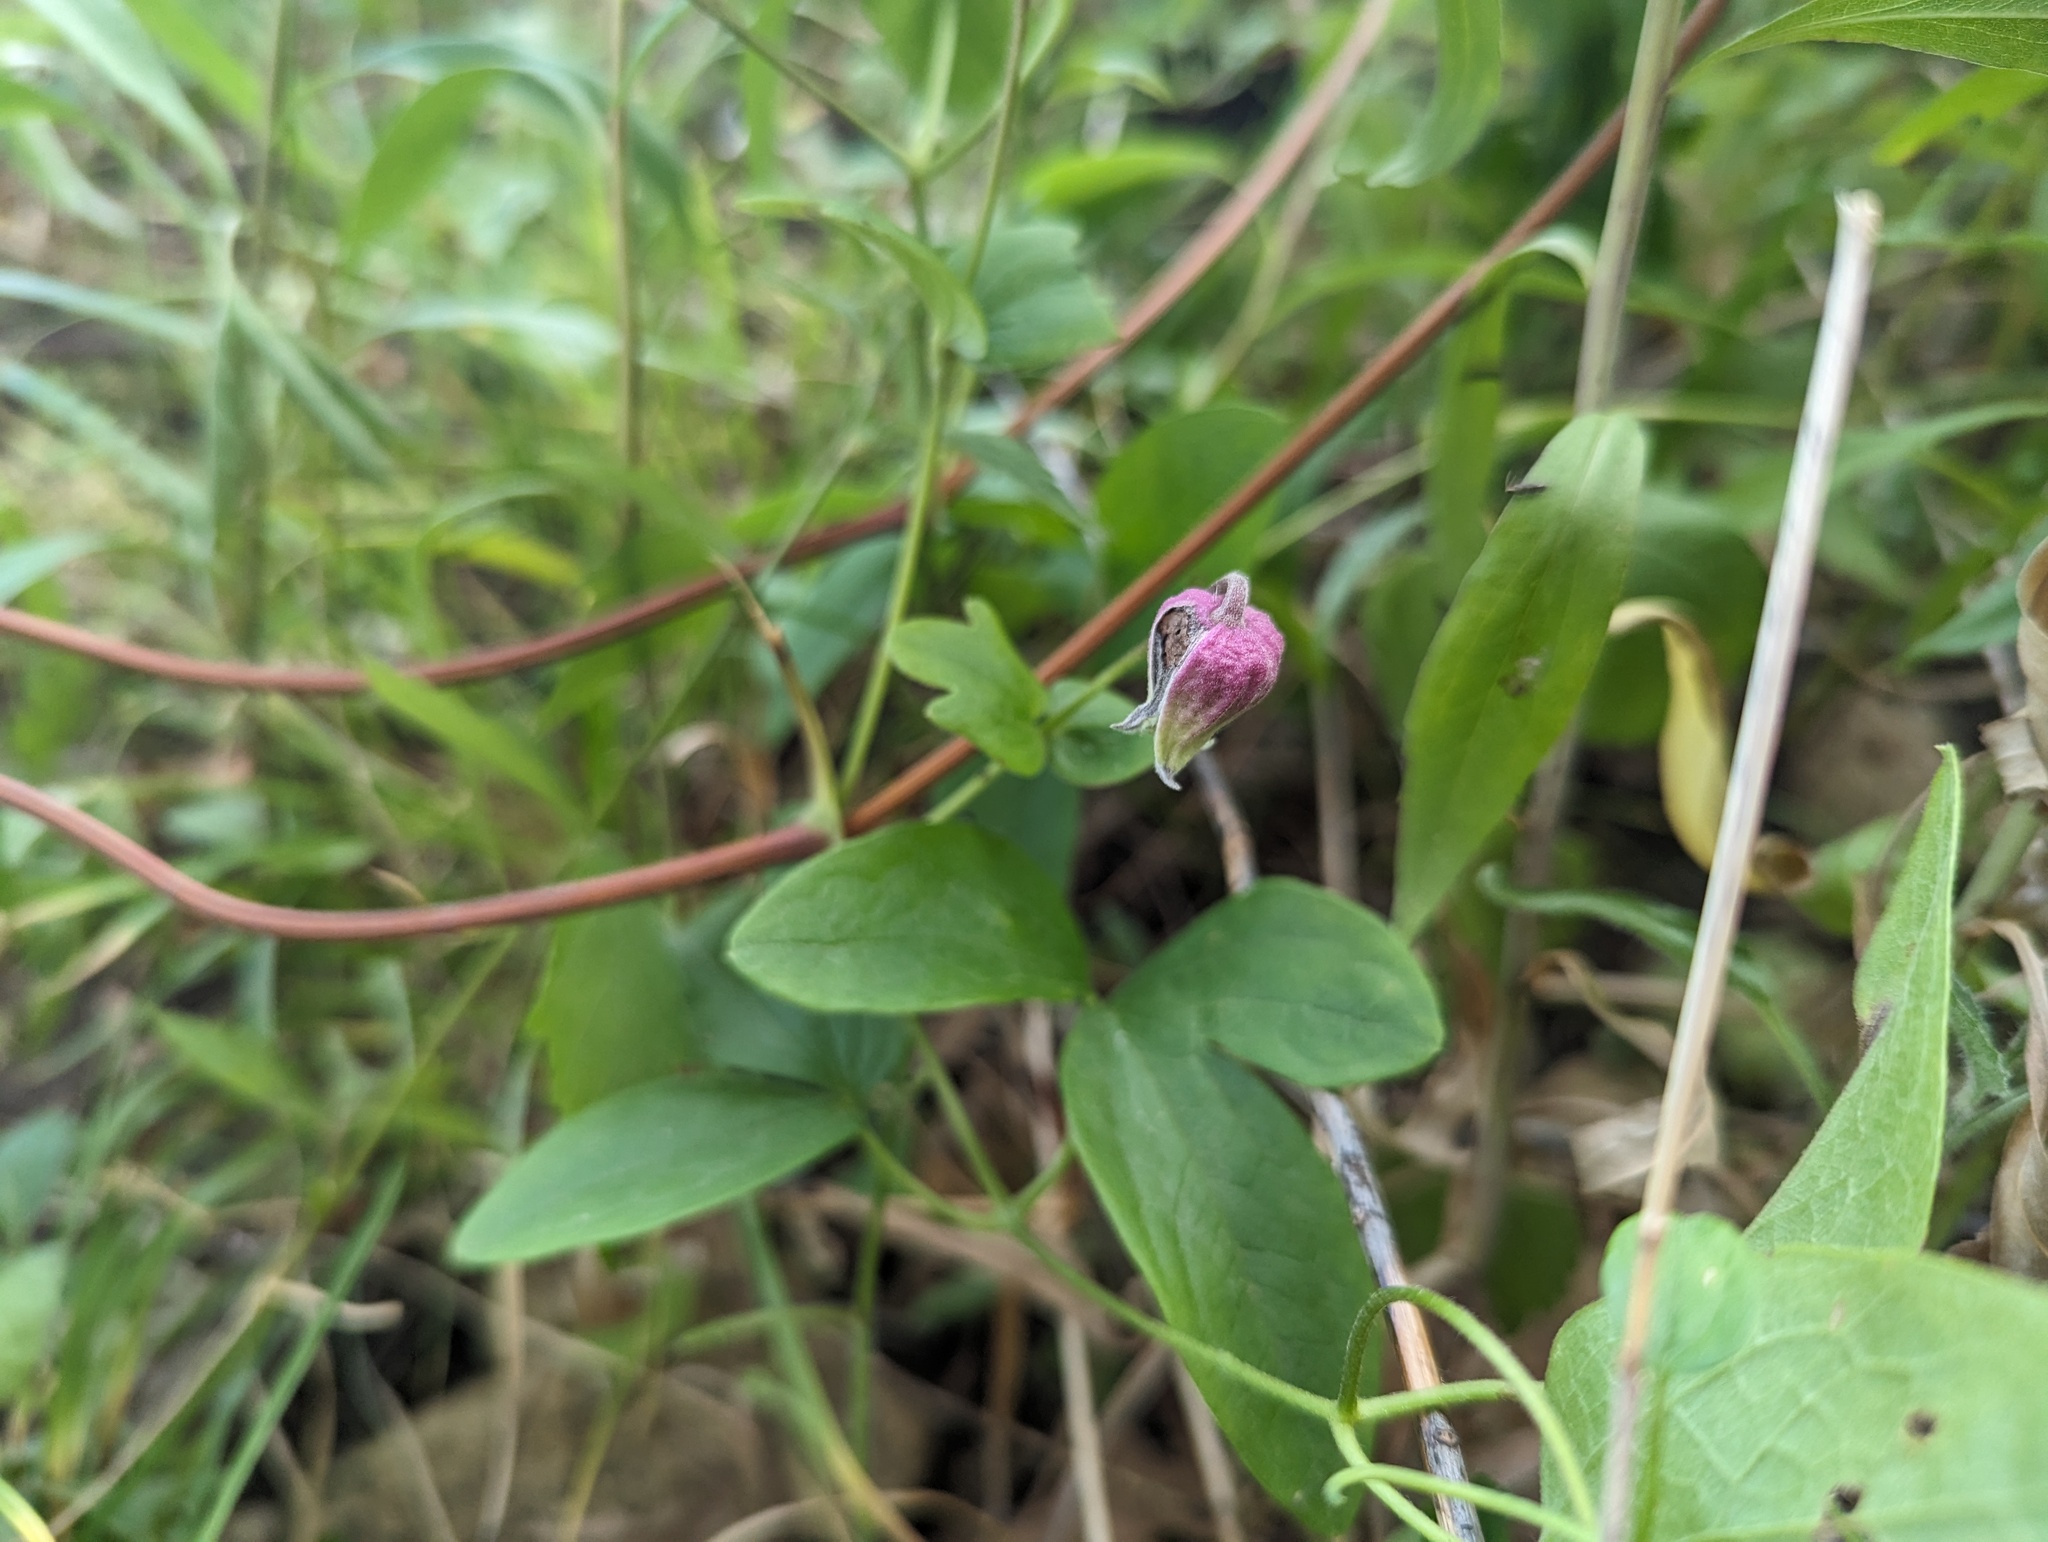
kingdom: Plantae
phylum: Tracheophyta
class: Magnoliopsida
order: Ranunculales
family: Ranunculaceae
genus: Clematis
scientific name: Clematis pitcheri
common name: Bellflower clematis
